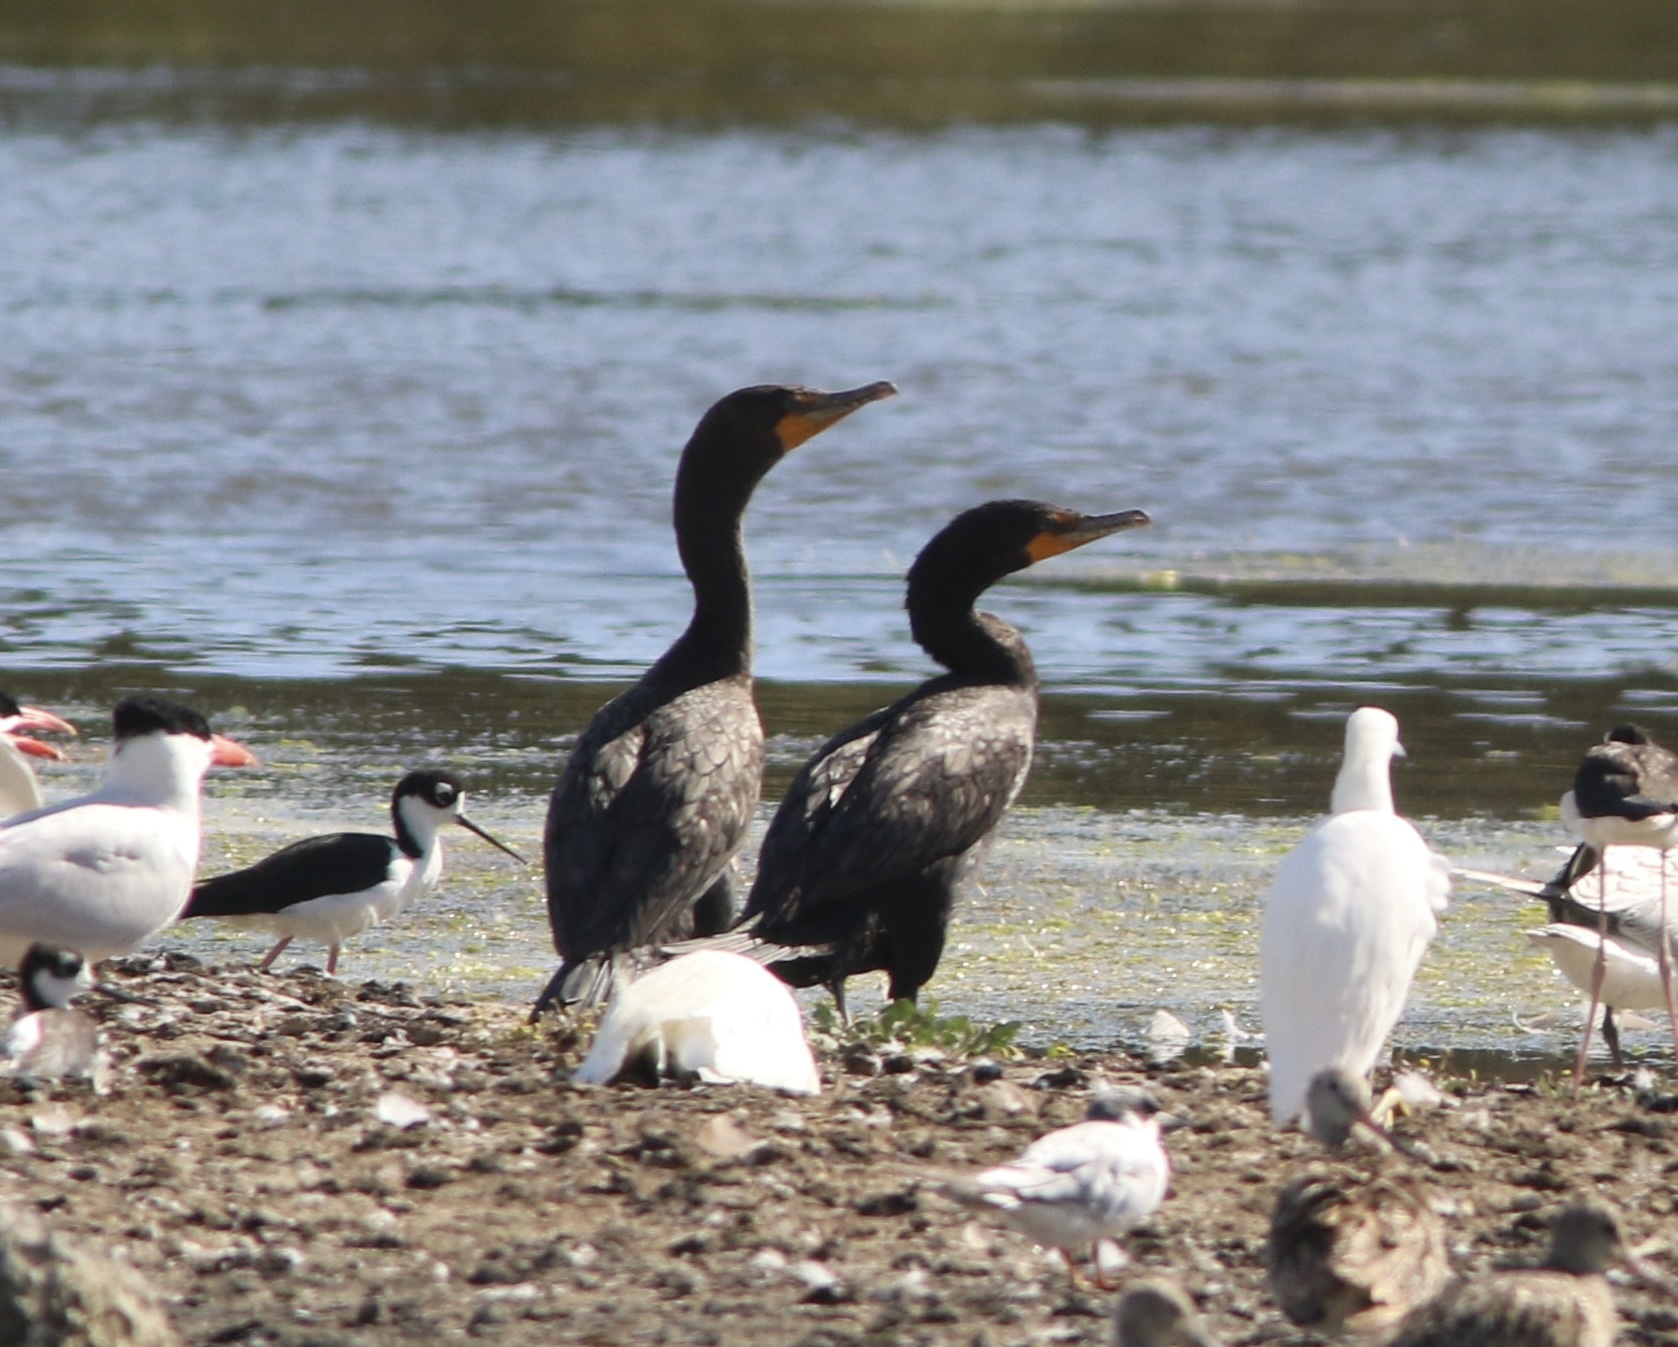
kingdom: Animalia
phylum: Chordata
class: Aves
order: Suliformes
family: Phalacrocoracidae
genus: Phalacrocorax
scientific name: Phalacrocorax auritus
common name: Double-crested cormorant
